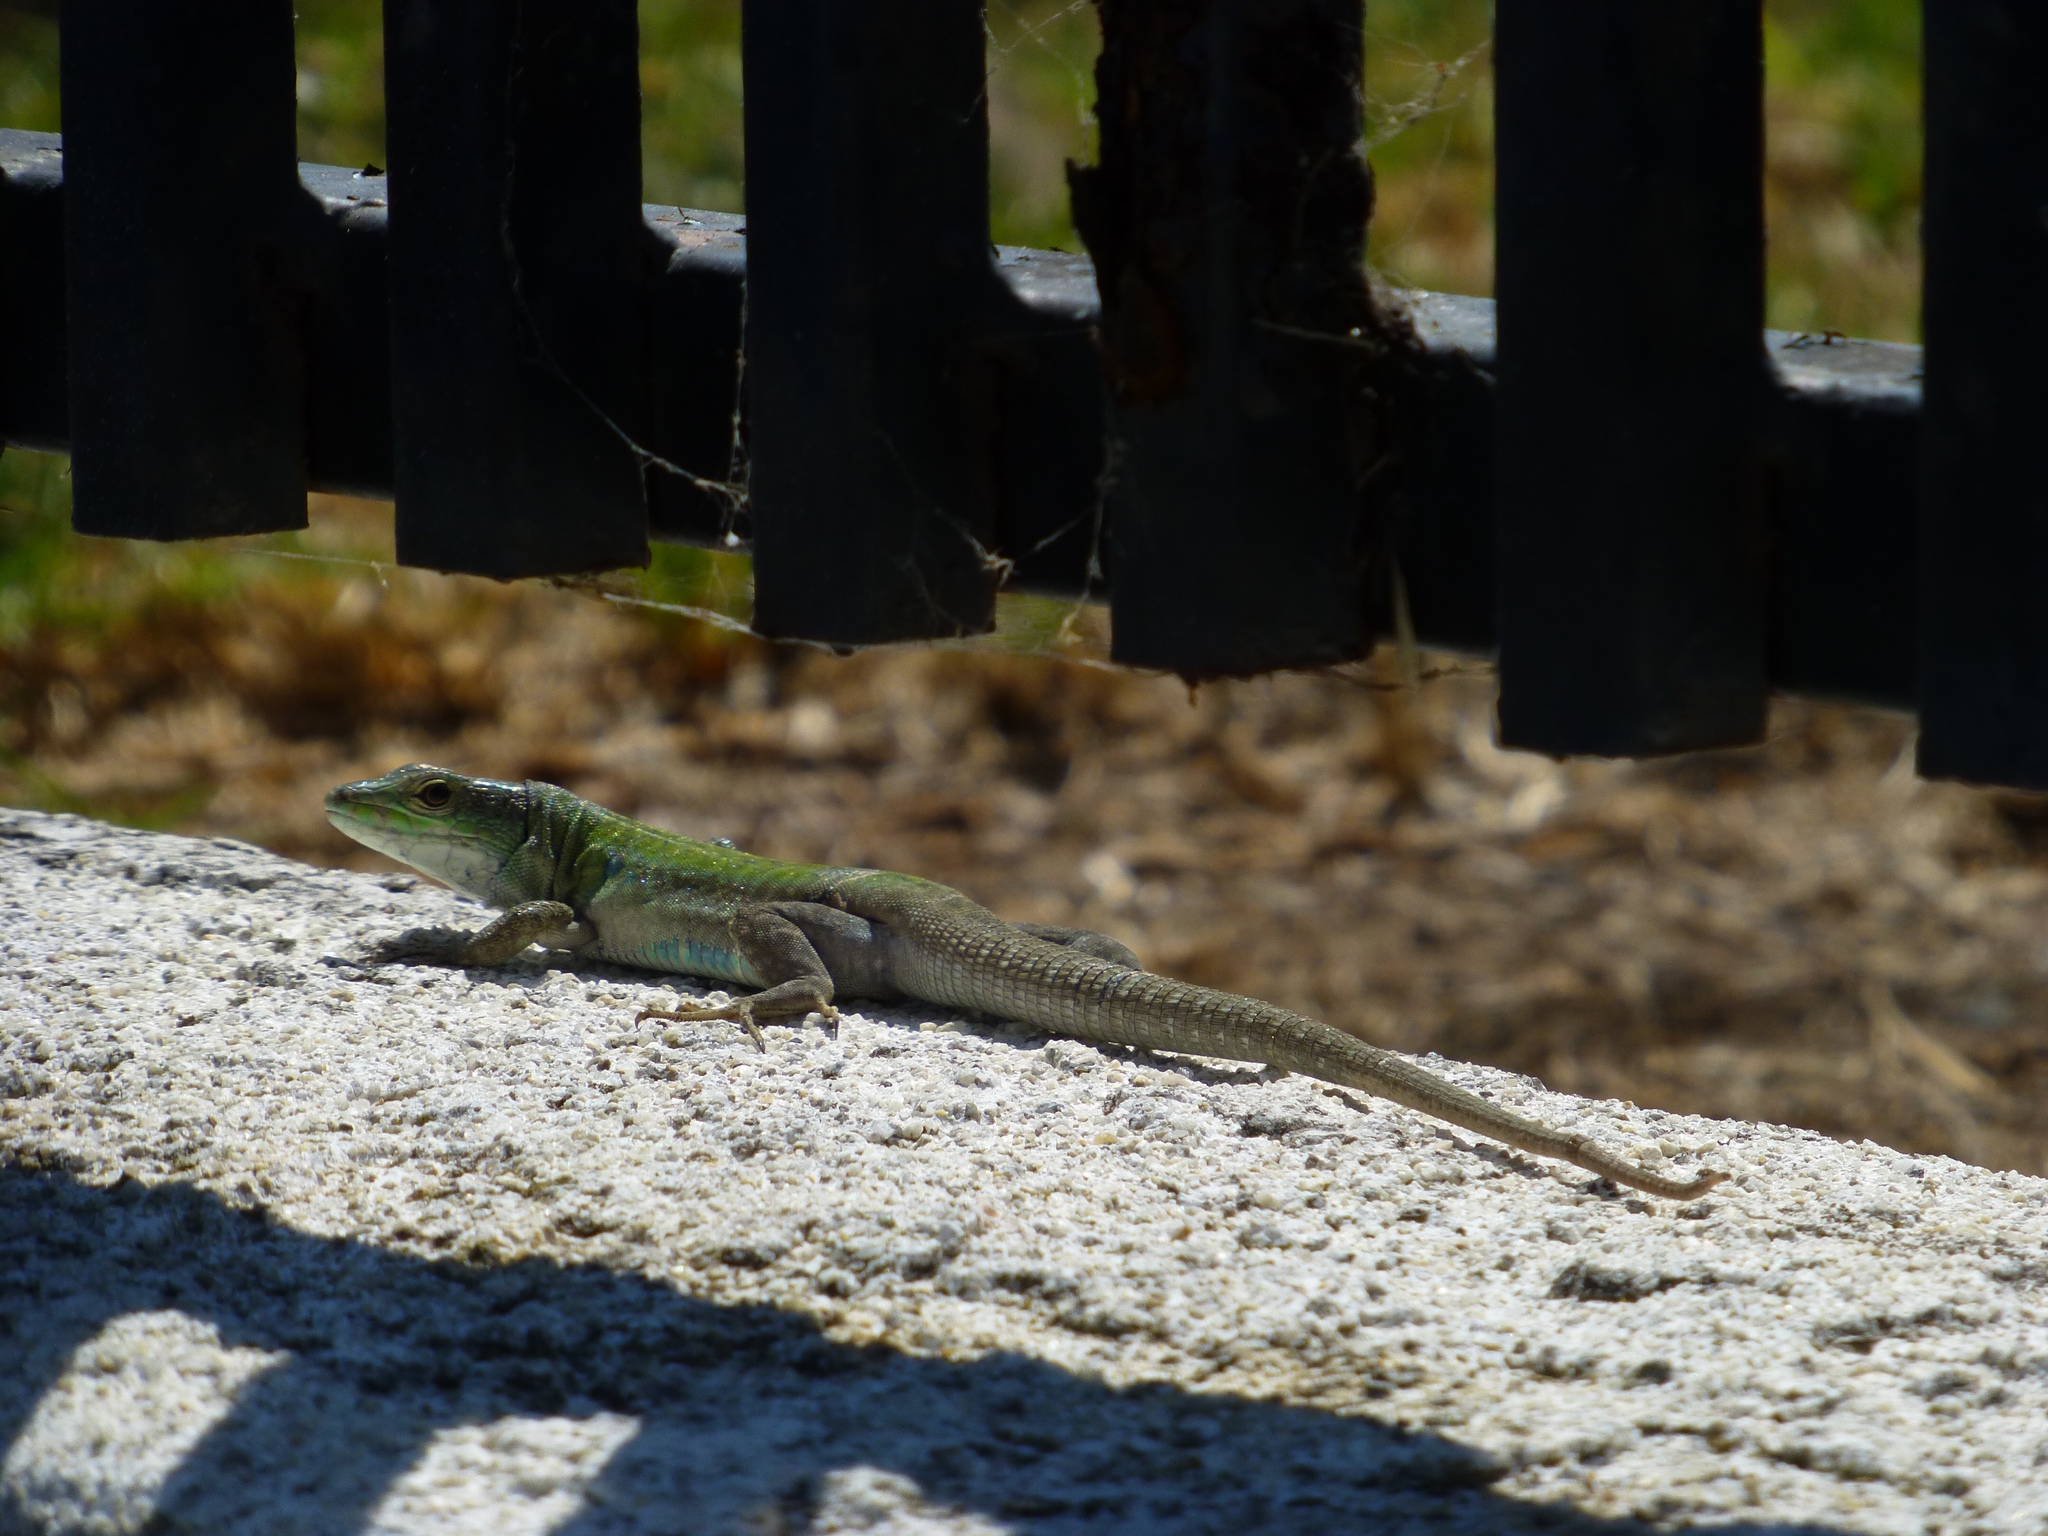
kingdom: Animalia
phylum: Chordata
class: Squamata
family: Lacertidae
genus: Podarcis
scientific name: Podarcis siculus
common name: Italian wall lizard
